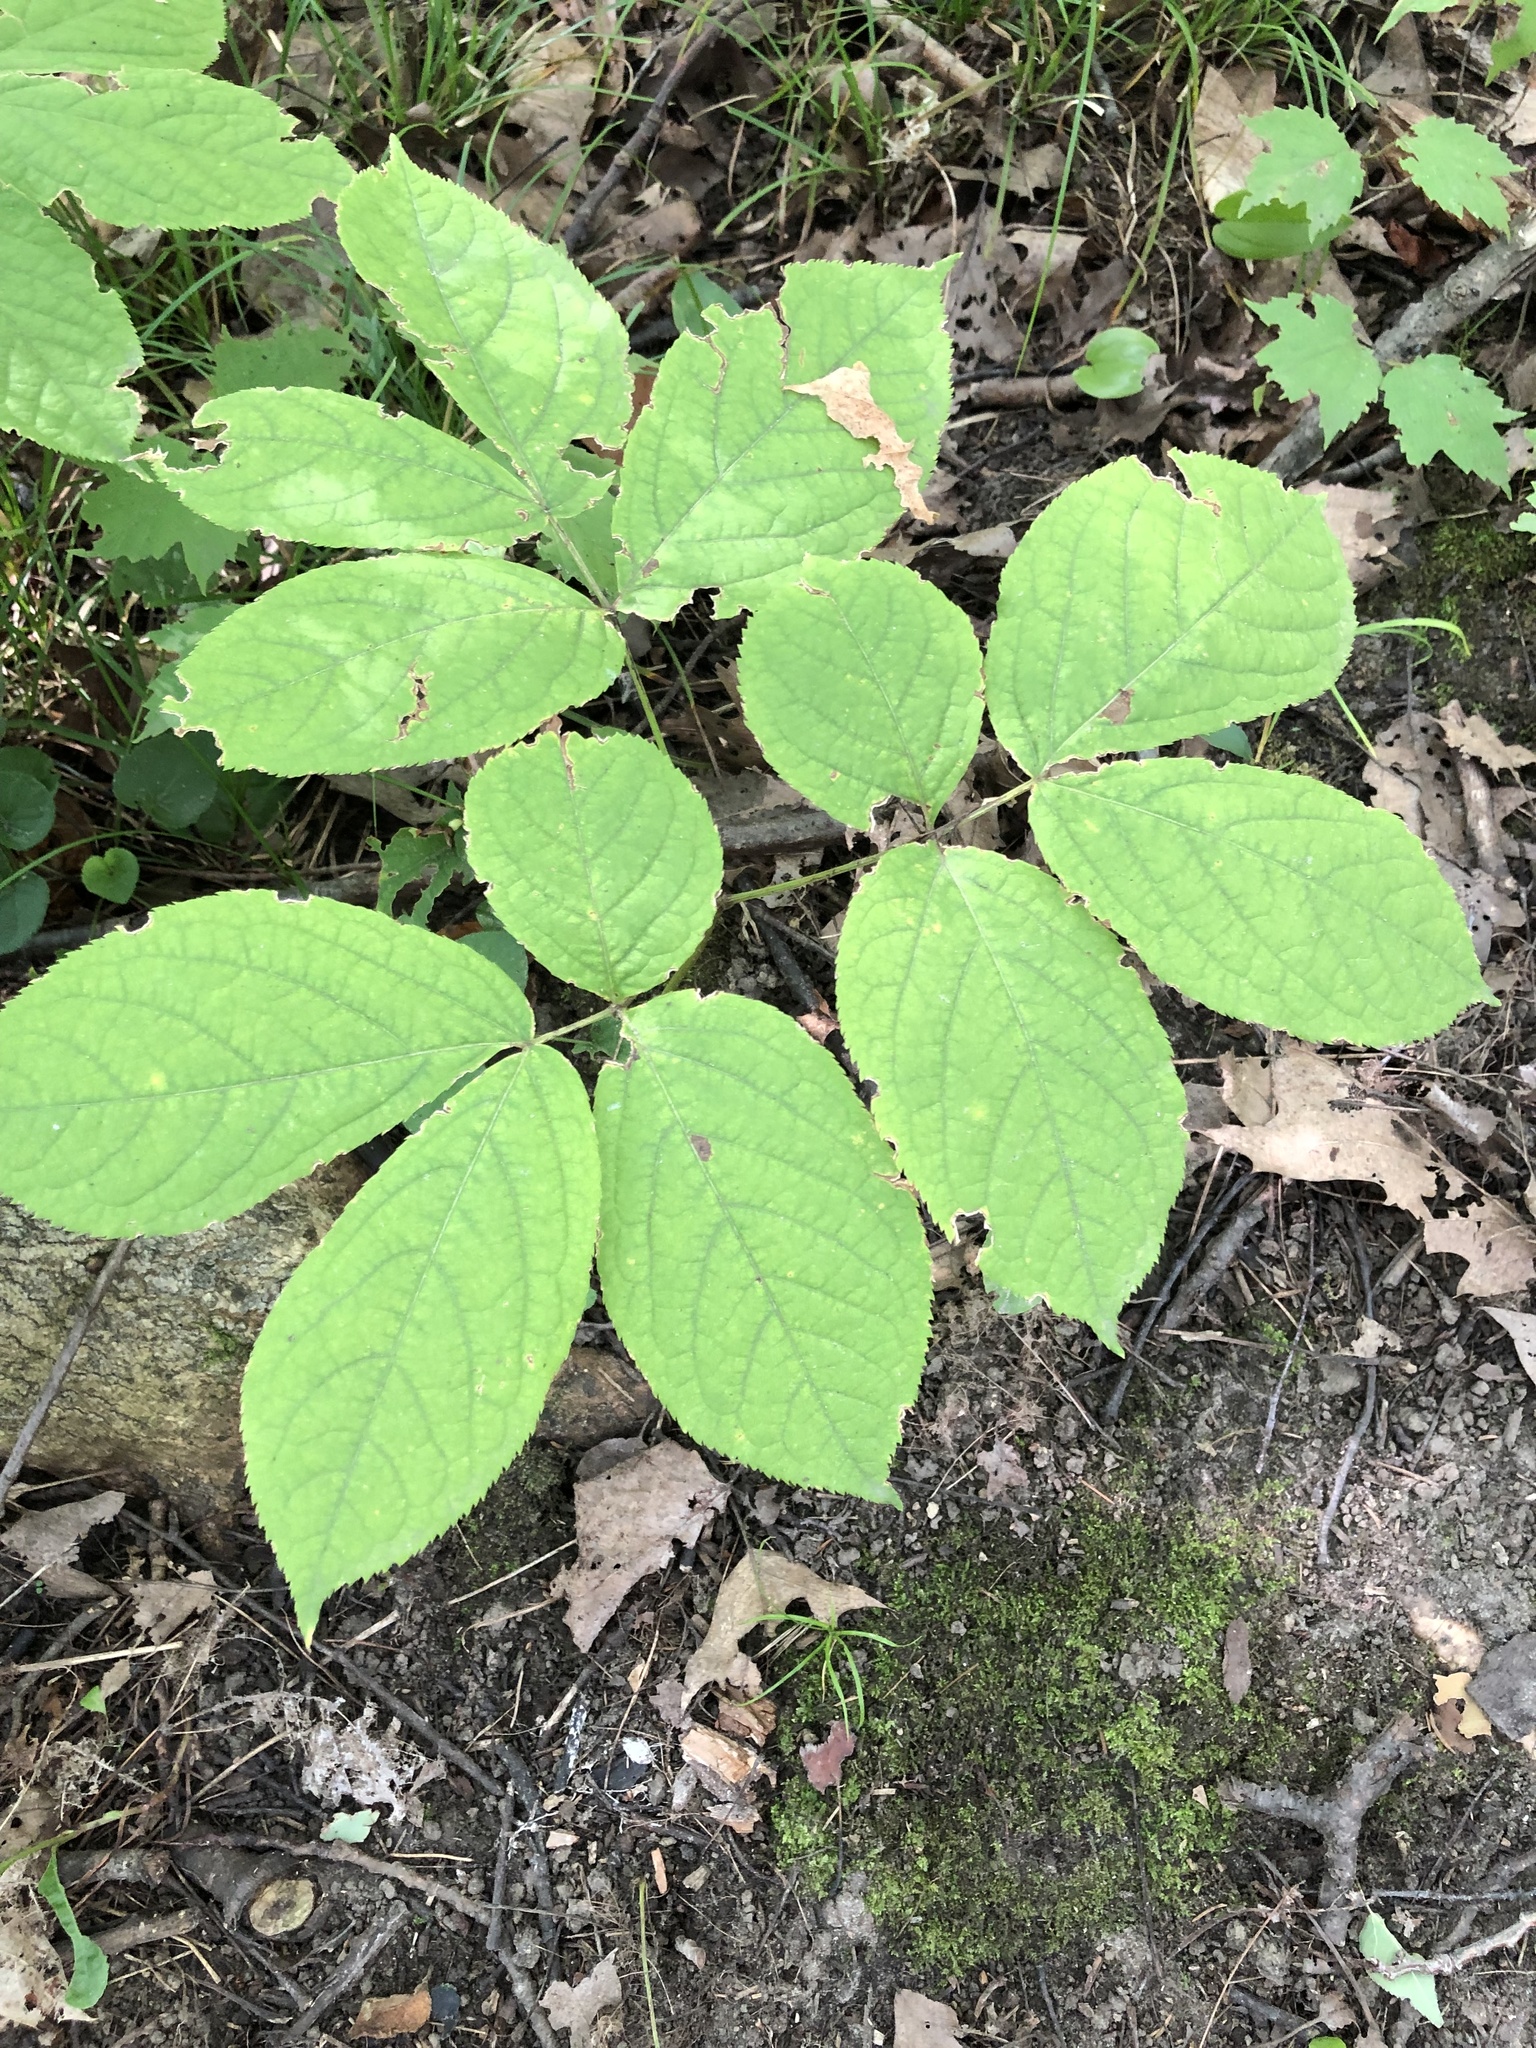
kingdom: Plantae
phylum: Tracheophyta
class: Magnoliopsida
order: Apiales
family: Araliaceae
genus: Aralia
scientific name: Aralia nudicaulis
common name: Wild sarsaparilla
